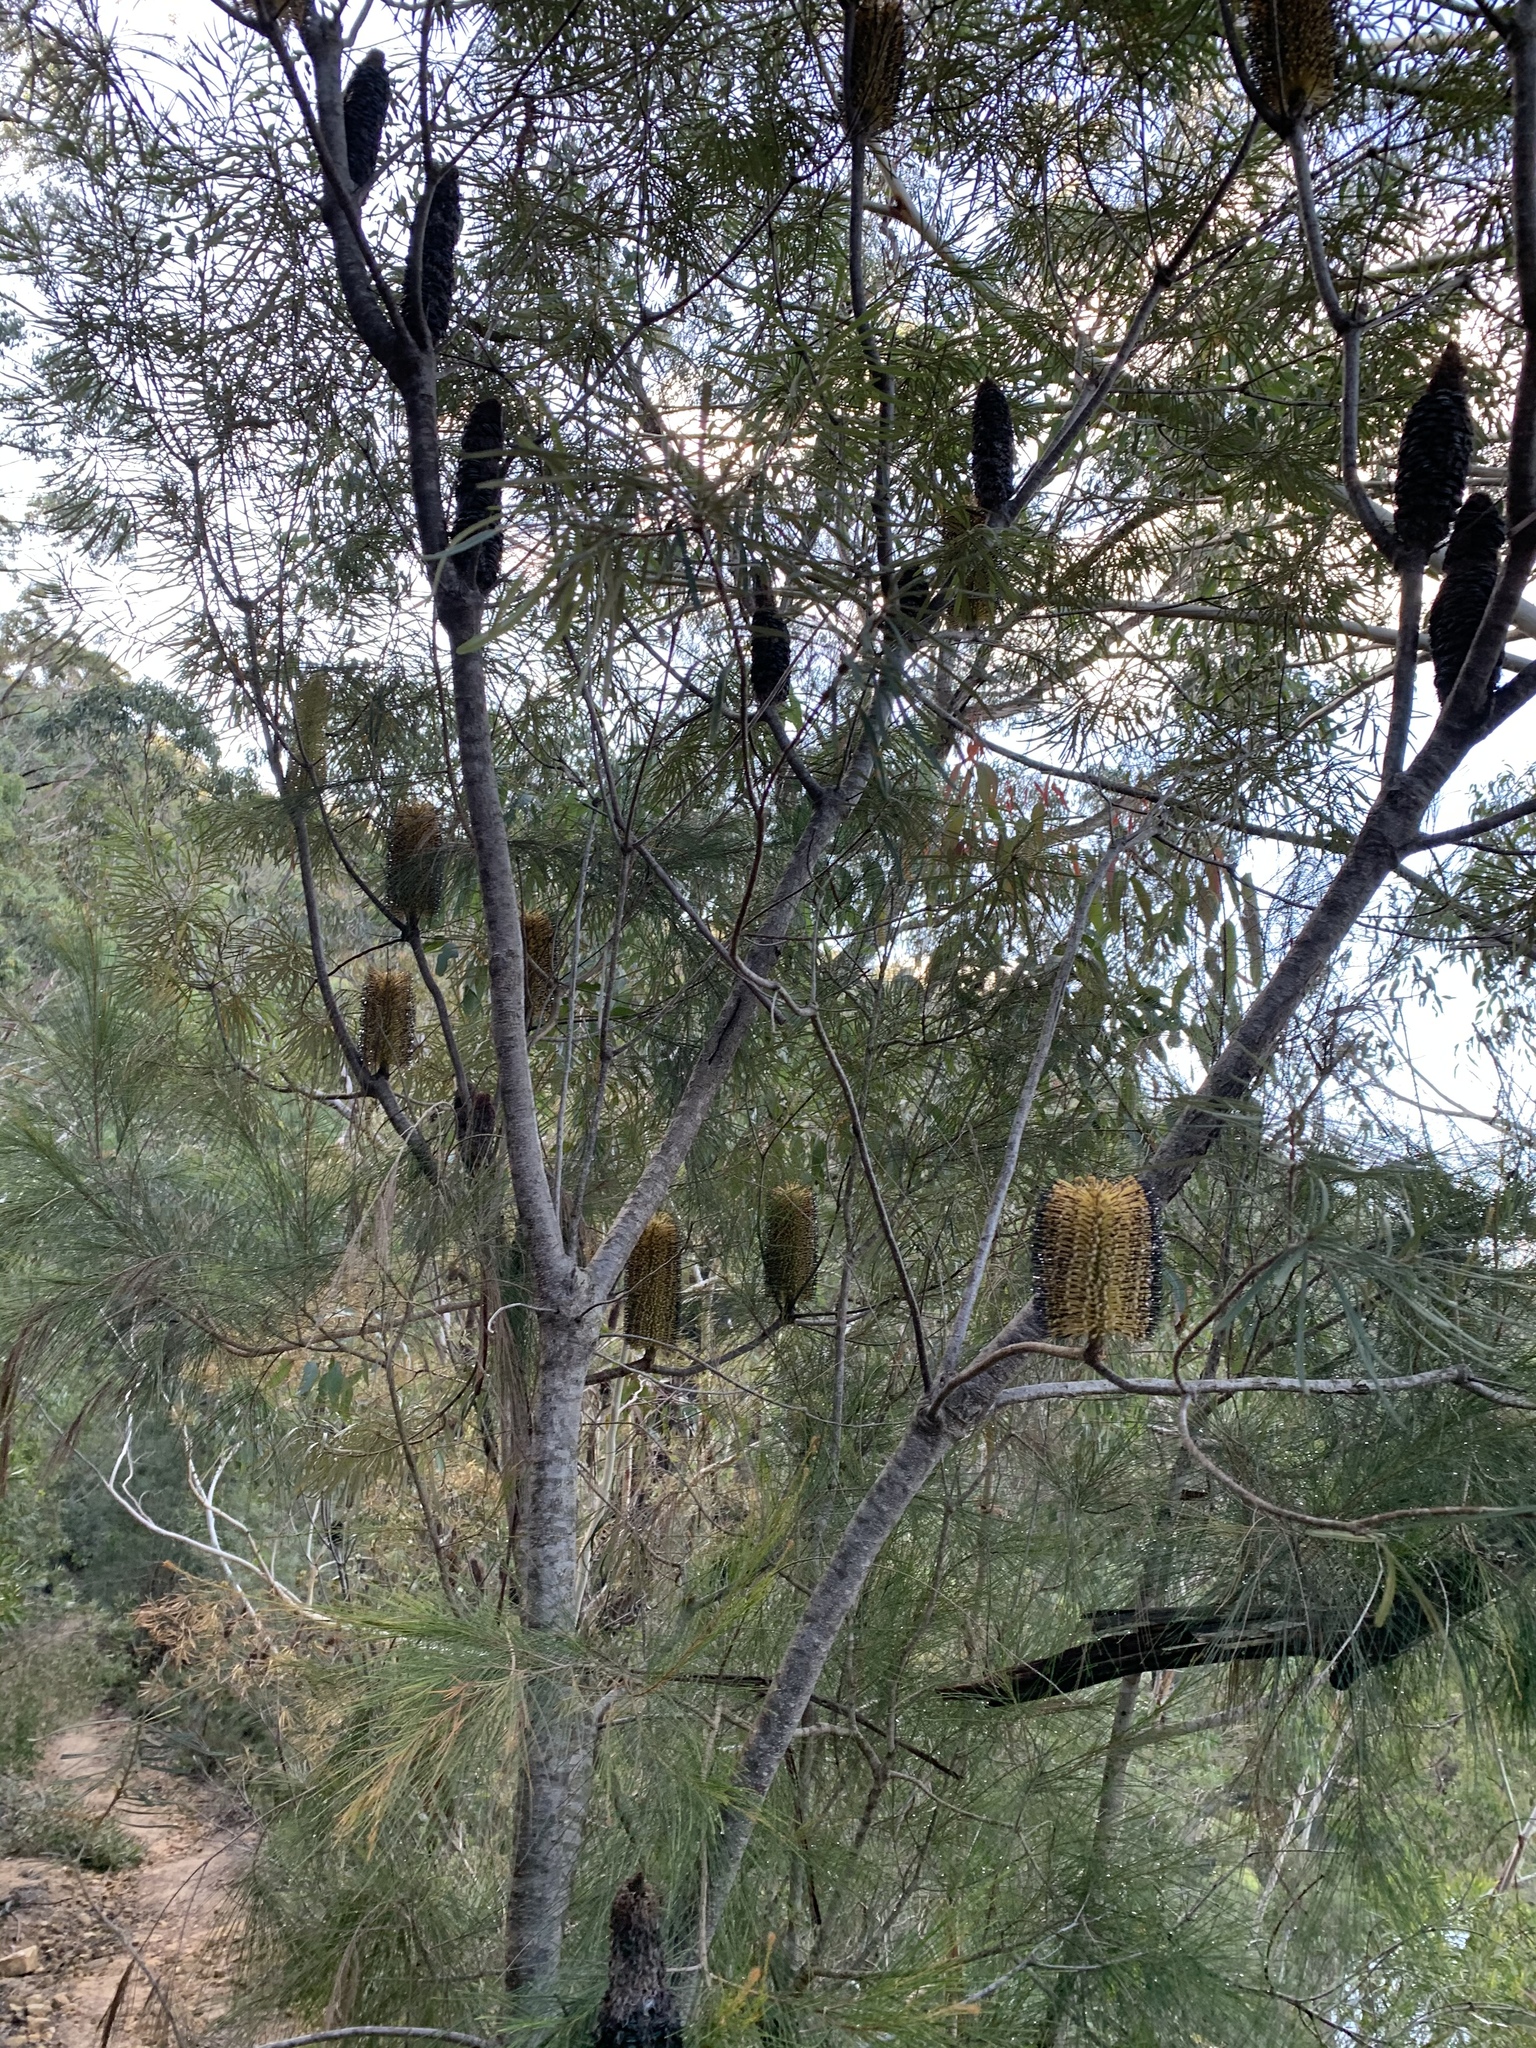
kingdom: Plantae
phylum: Tracheophyta
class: Magnoliopsida
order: Proteales
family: Proteaceae
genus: Banksia
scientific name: Banksia spinulosa
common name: Hairpin banksia
